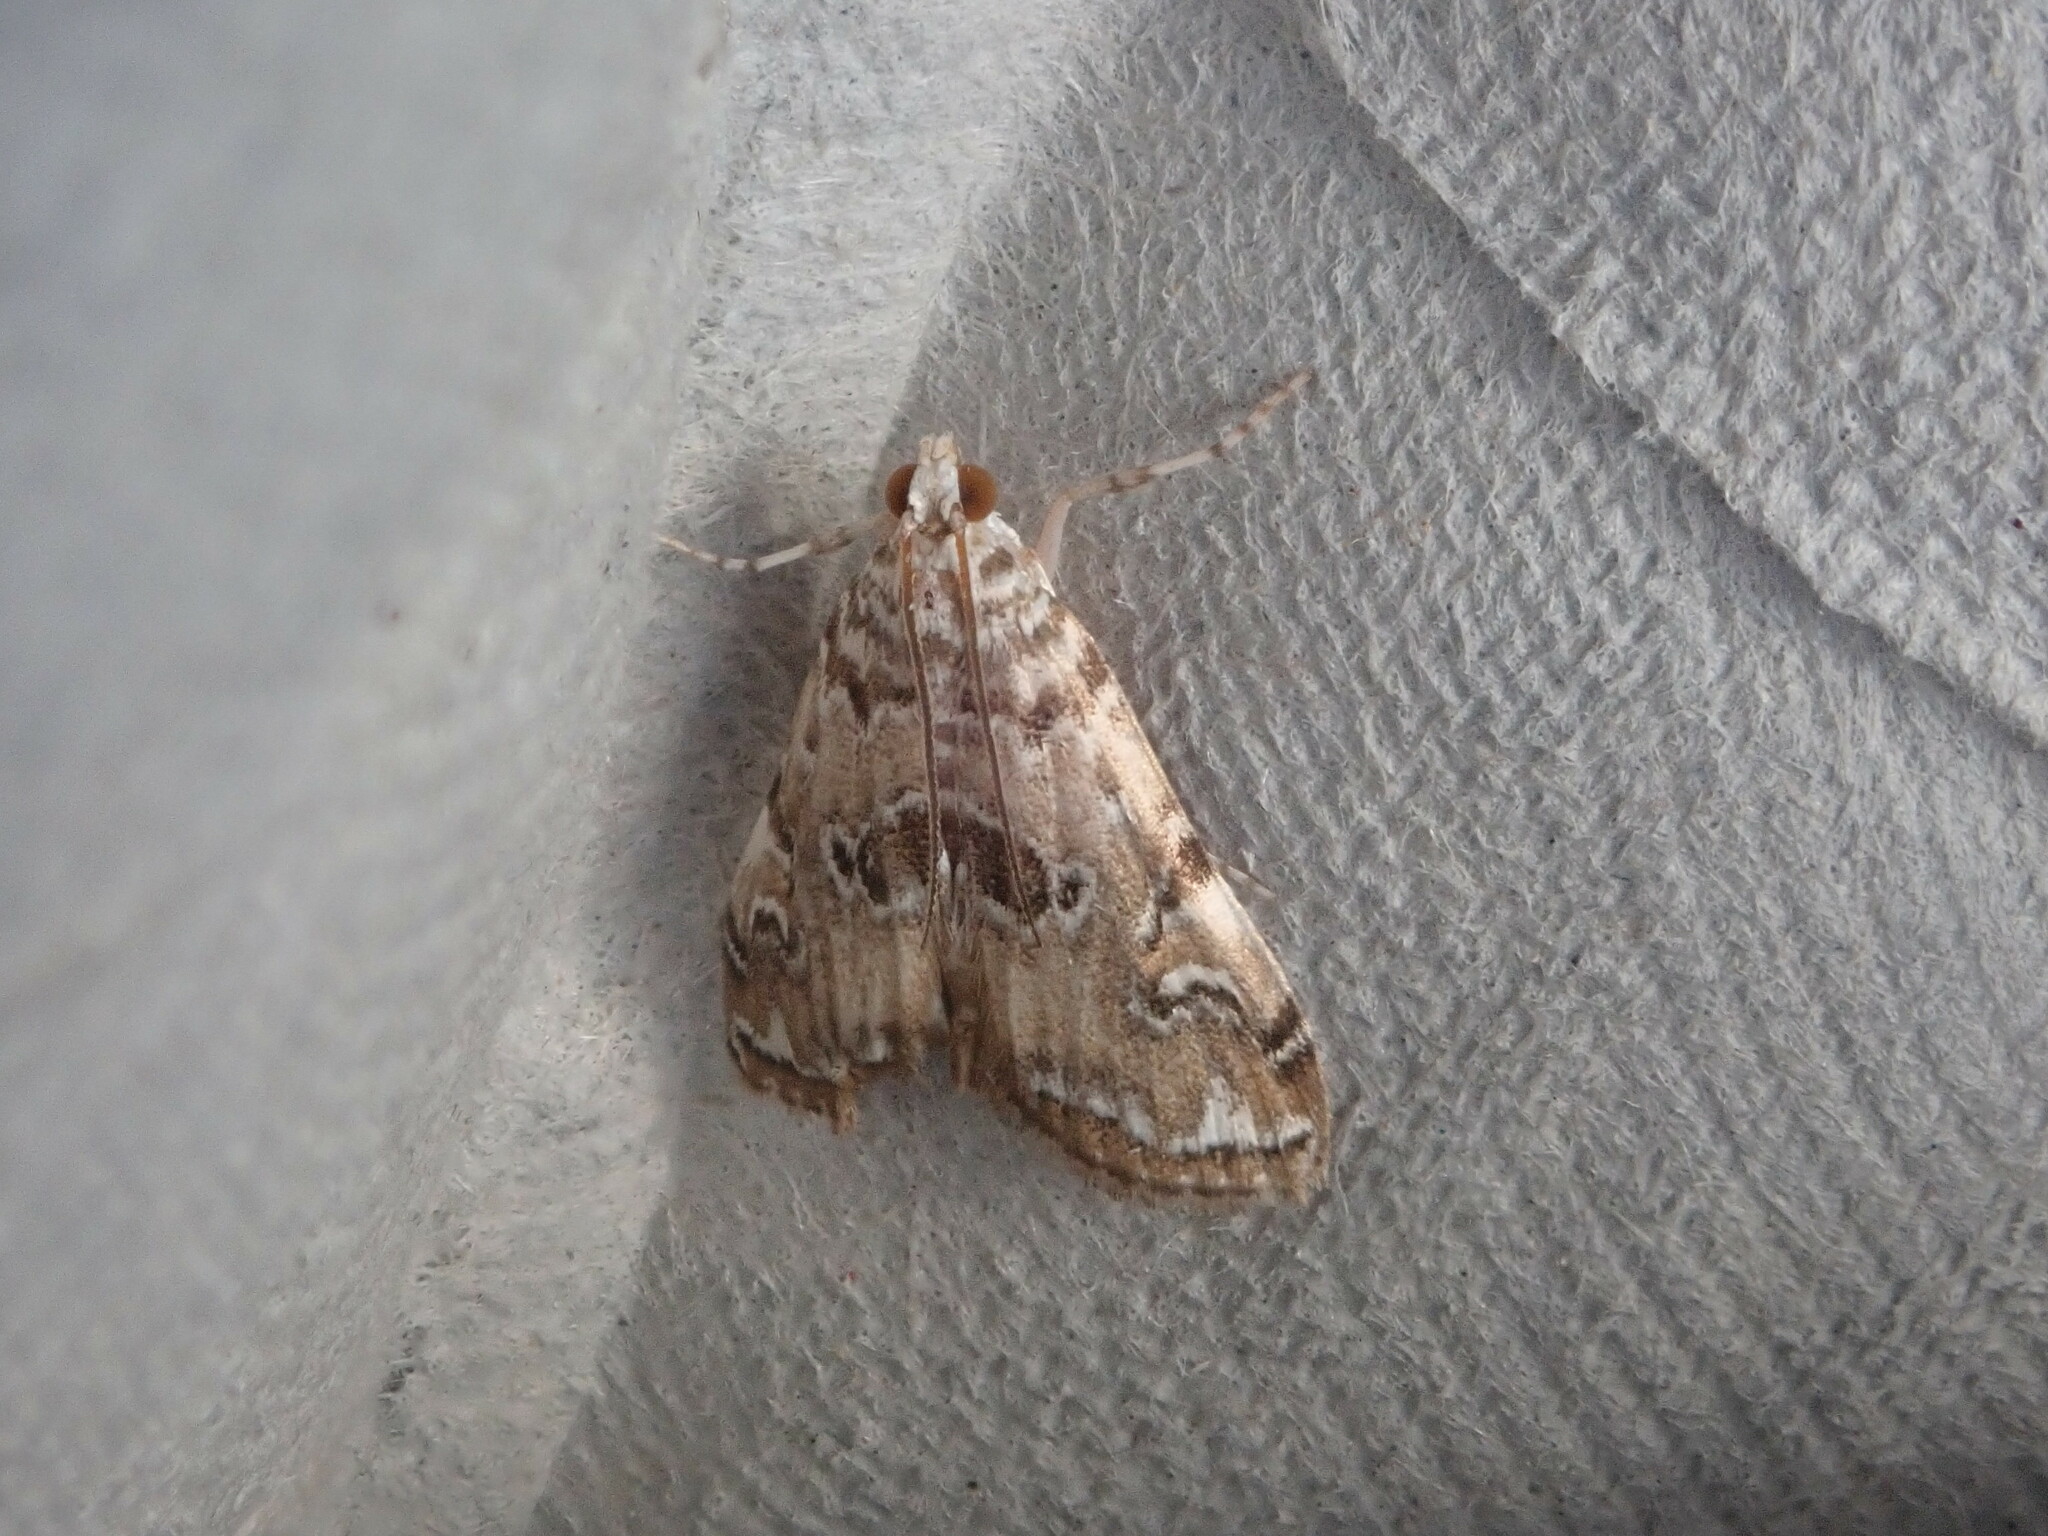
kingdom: Animalia
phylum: Arthropoda
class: Insecta
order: Lepidoptera
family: Crambidae
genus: Elophila
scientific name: Elophila gyralis
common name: Waterlily borer moth
